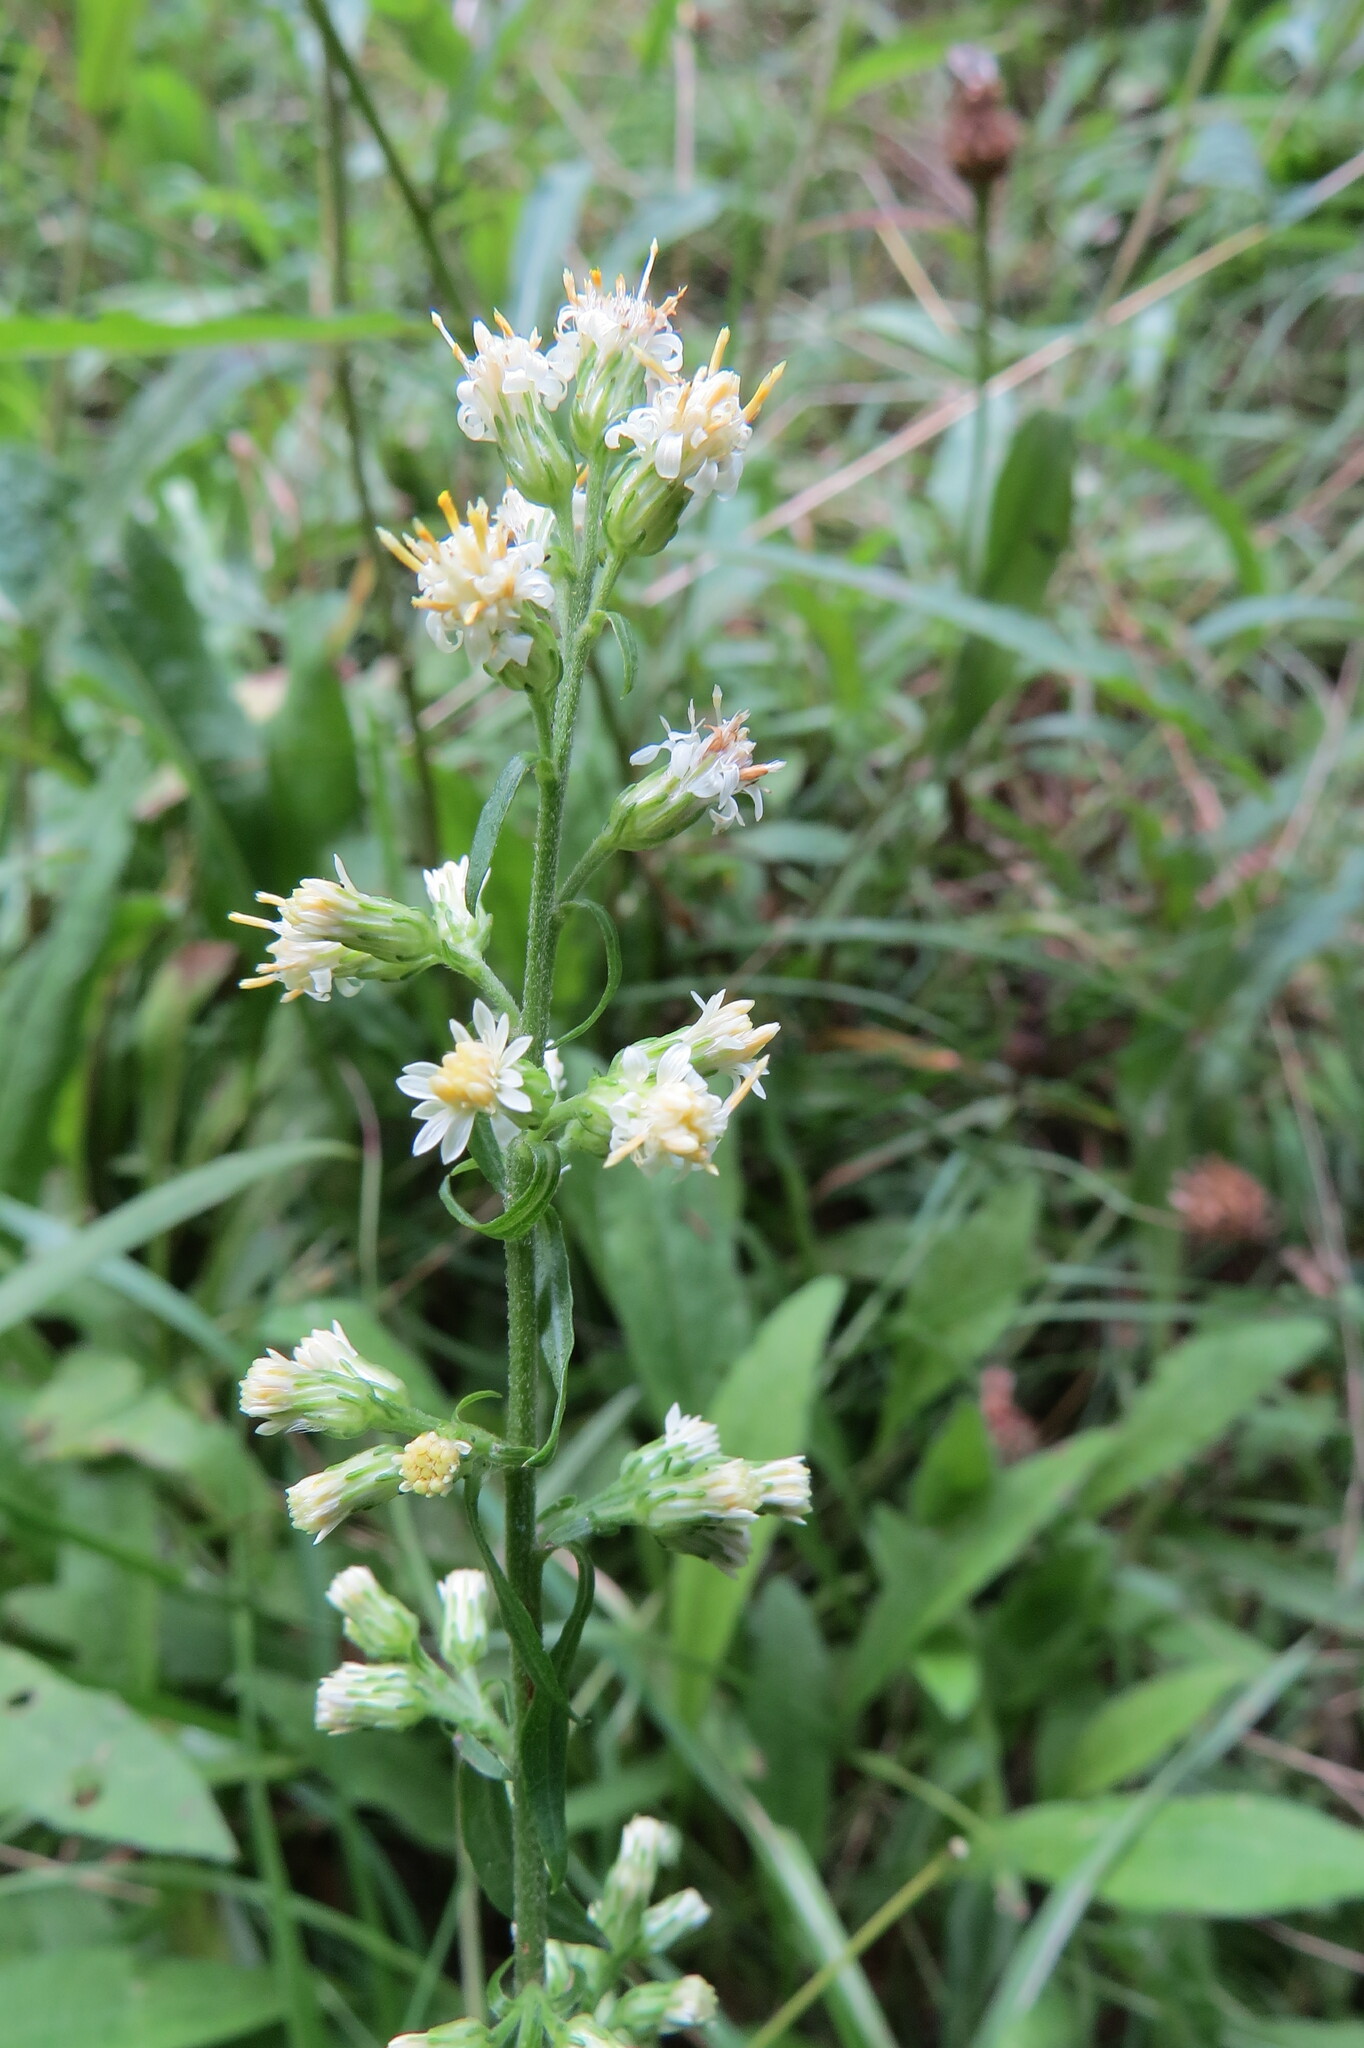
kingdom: Plantae
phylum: Tracheophyta
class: Magnoliopsida
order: Asterales
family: Asteraceae
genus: Solidago
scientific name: Solidago bicolor
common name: Silverrod
